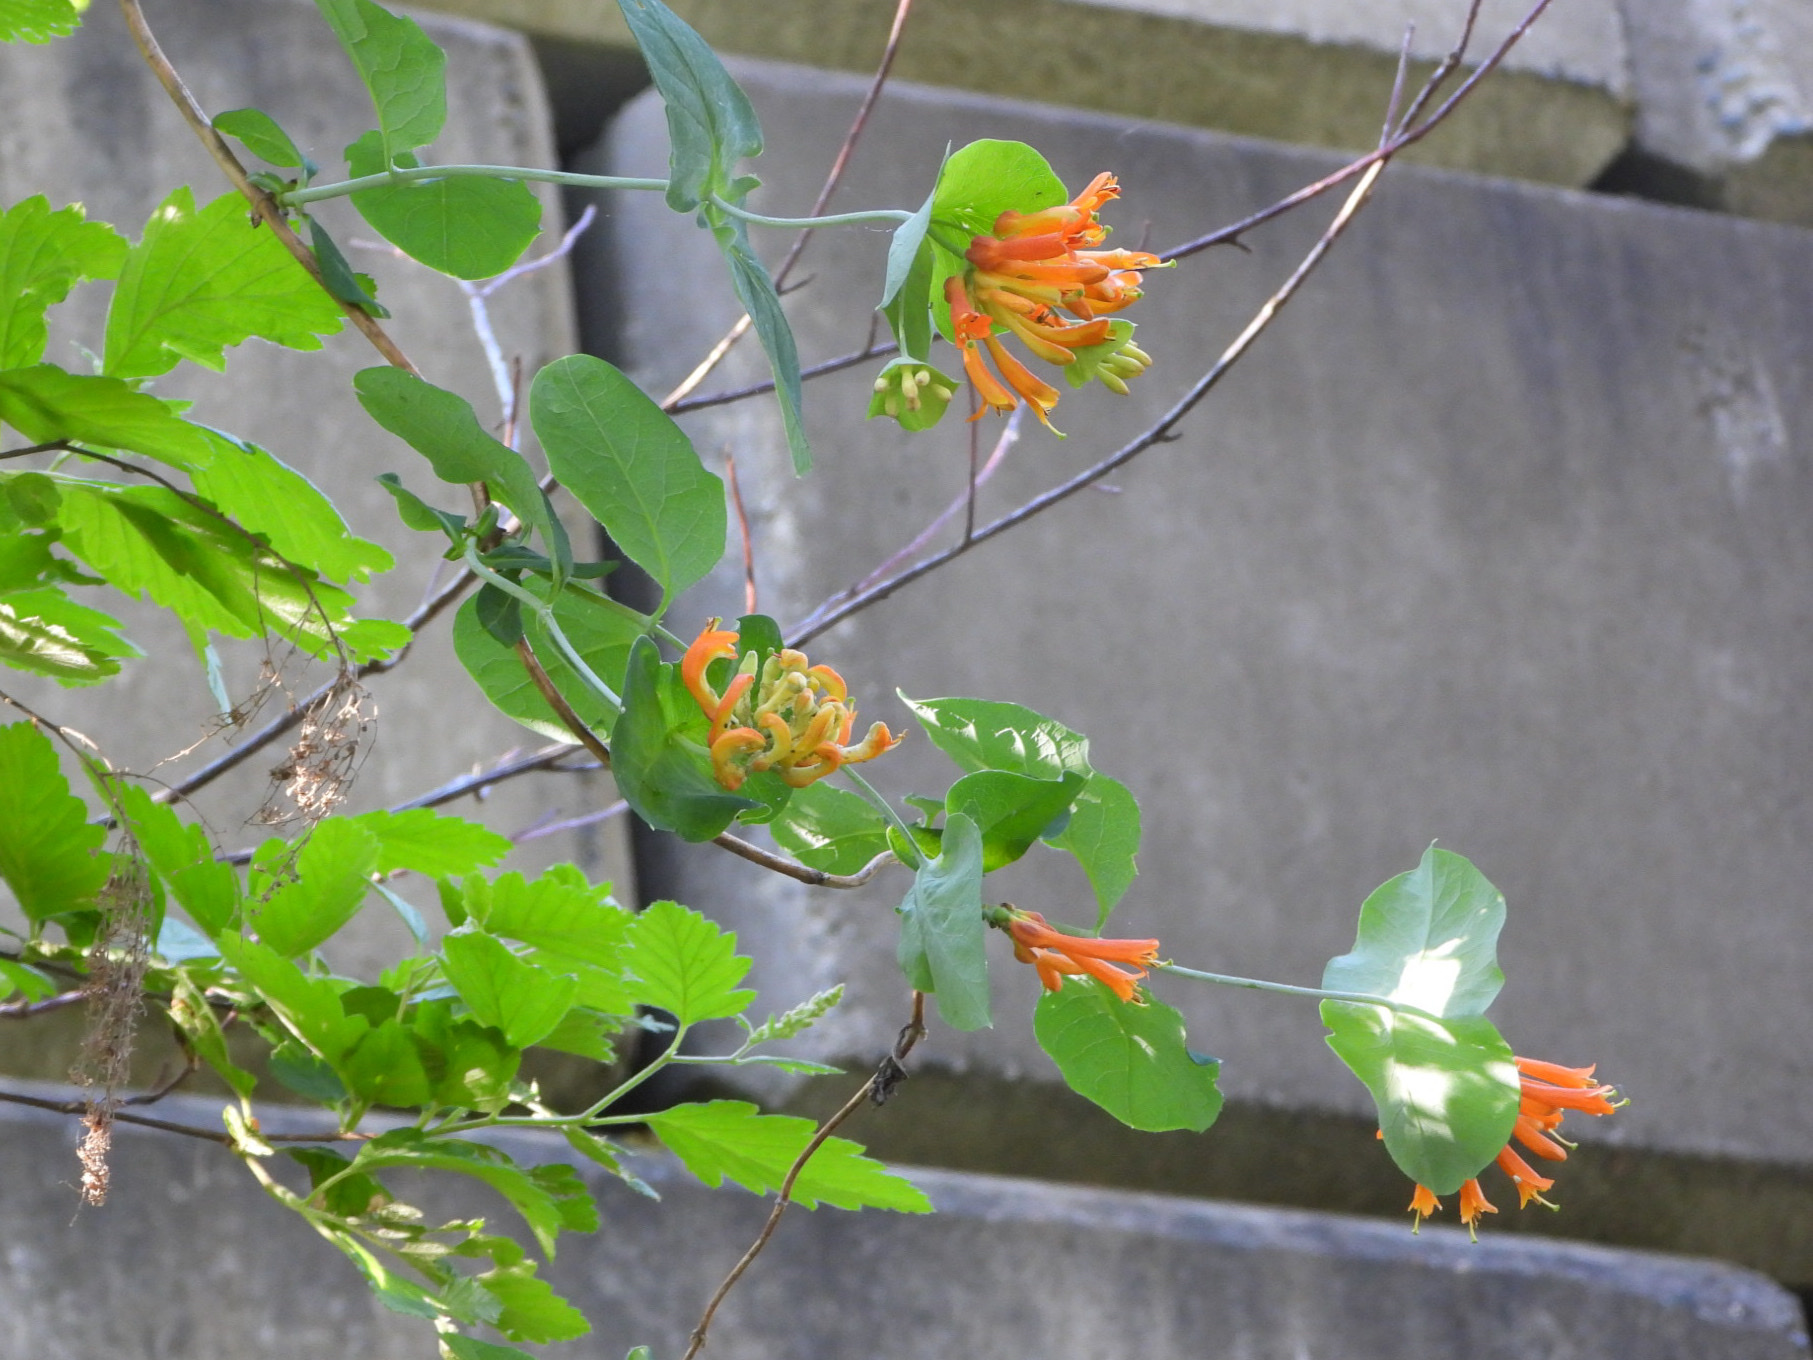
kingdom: Plantae
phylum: Tracheophyta
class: Magnoliopsida
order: Dipsacales
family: Caprifoliaceae
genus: Lonicera
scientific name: Lonicera ciliosa
